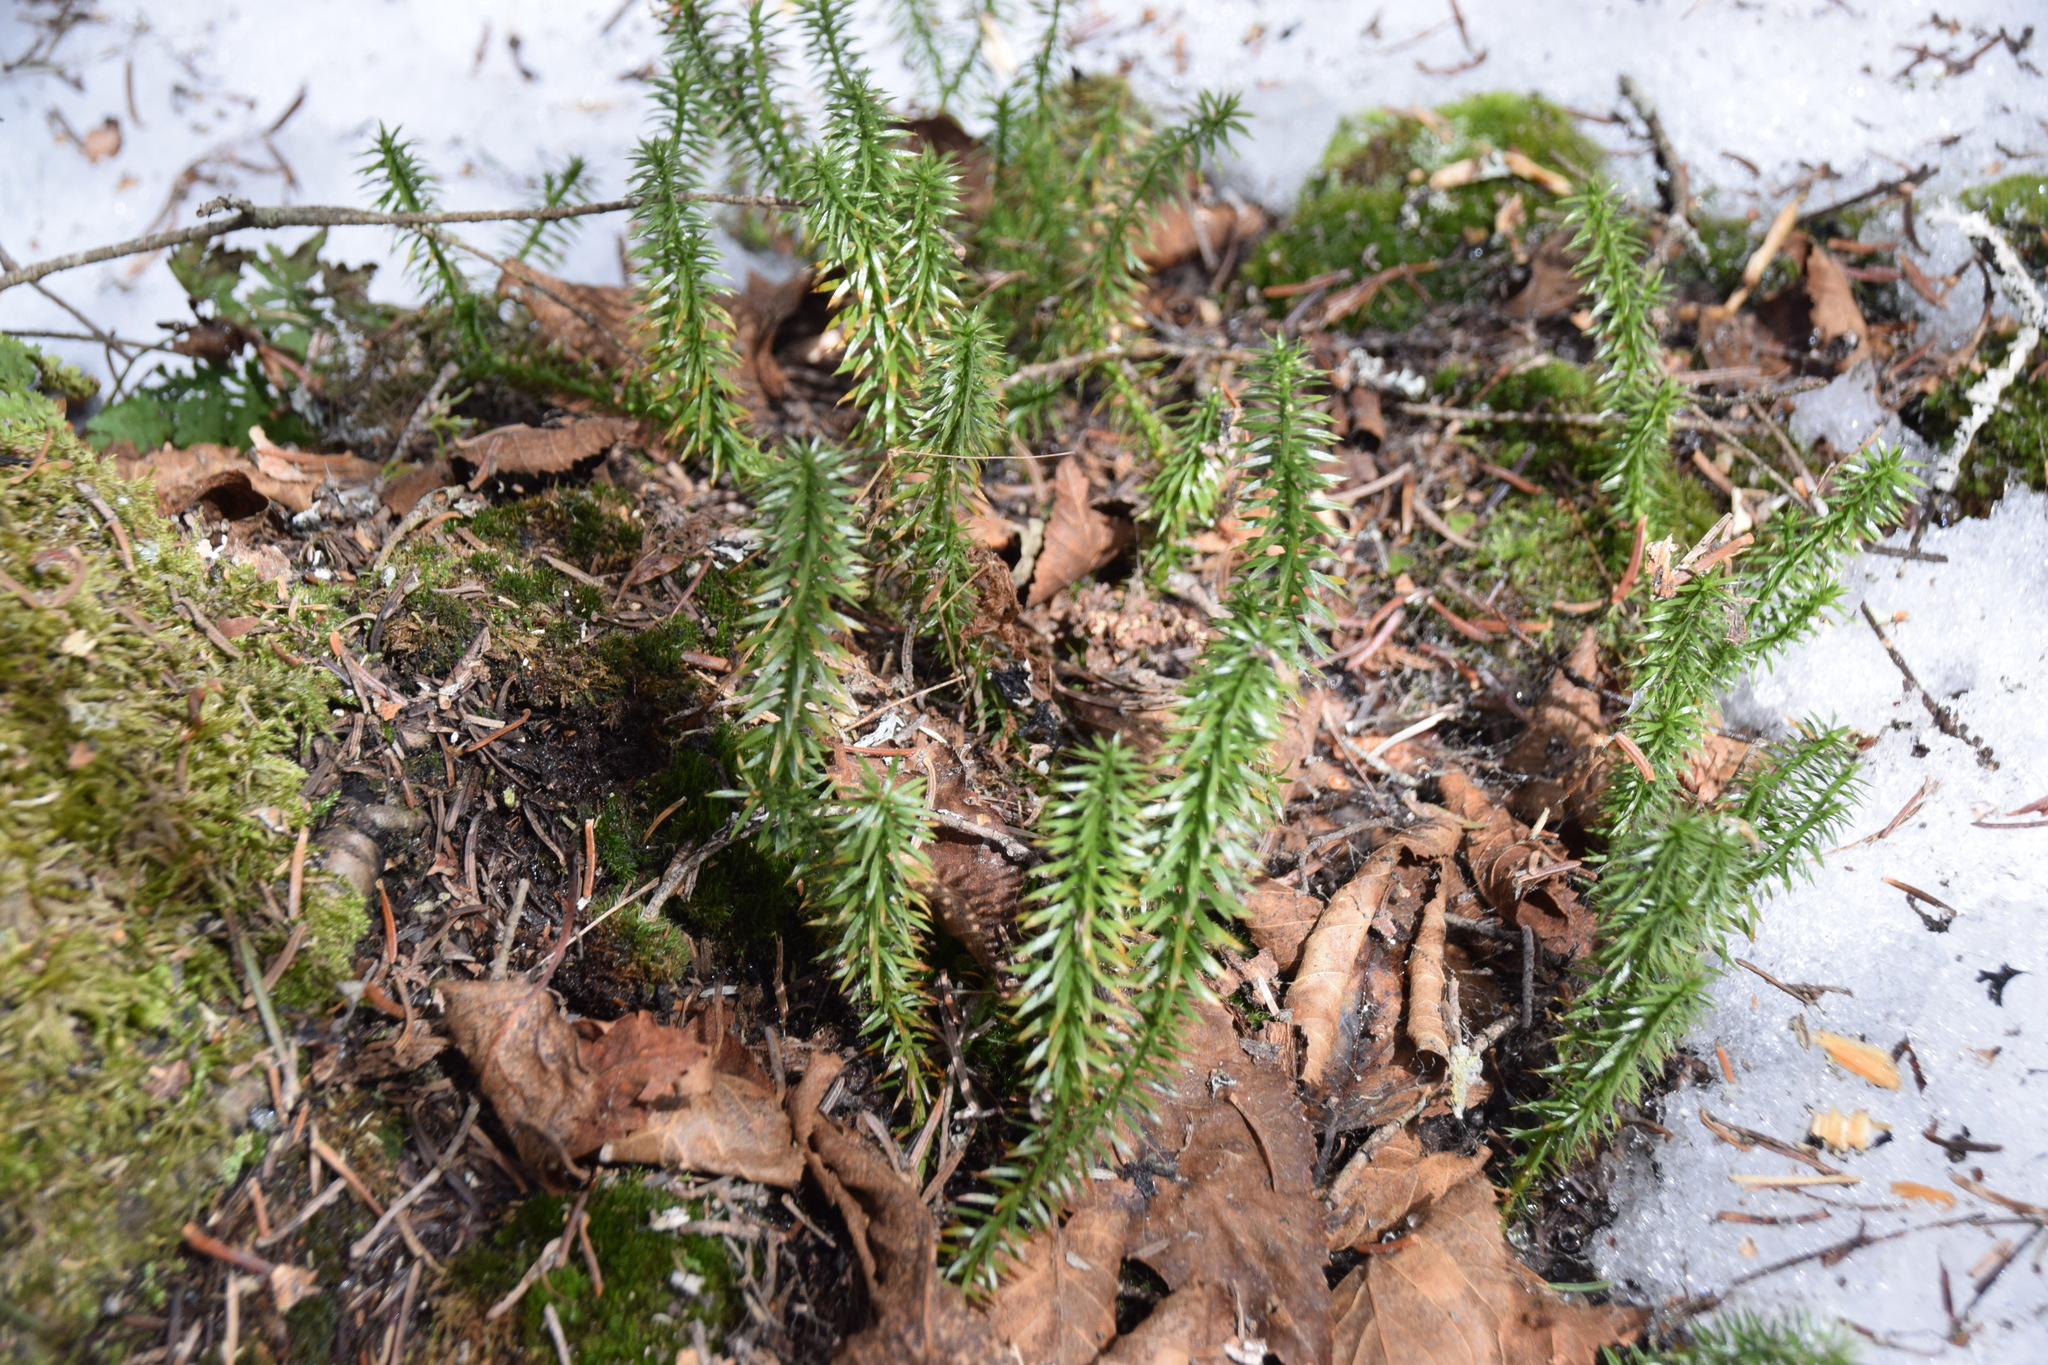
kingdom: Plantae
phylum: Tracheophyta
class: Lycopodiopsida
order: Lycopodiales
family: Lycopodiaceae
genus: Spinulum
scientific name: Spinulum annotinum
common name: Interrupted club-moss
